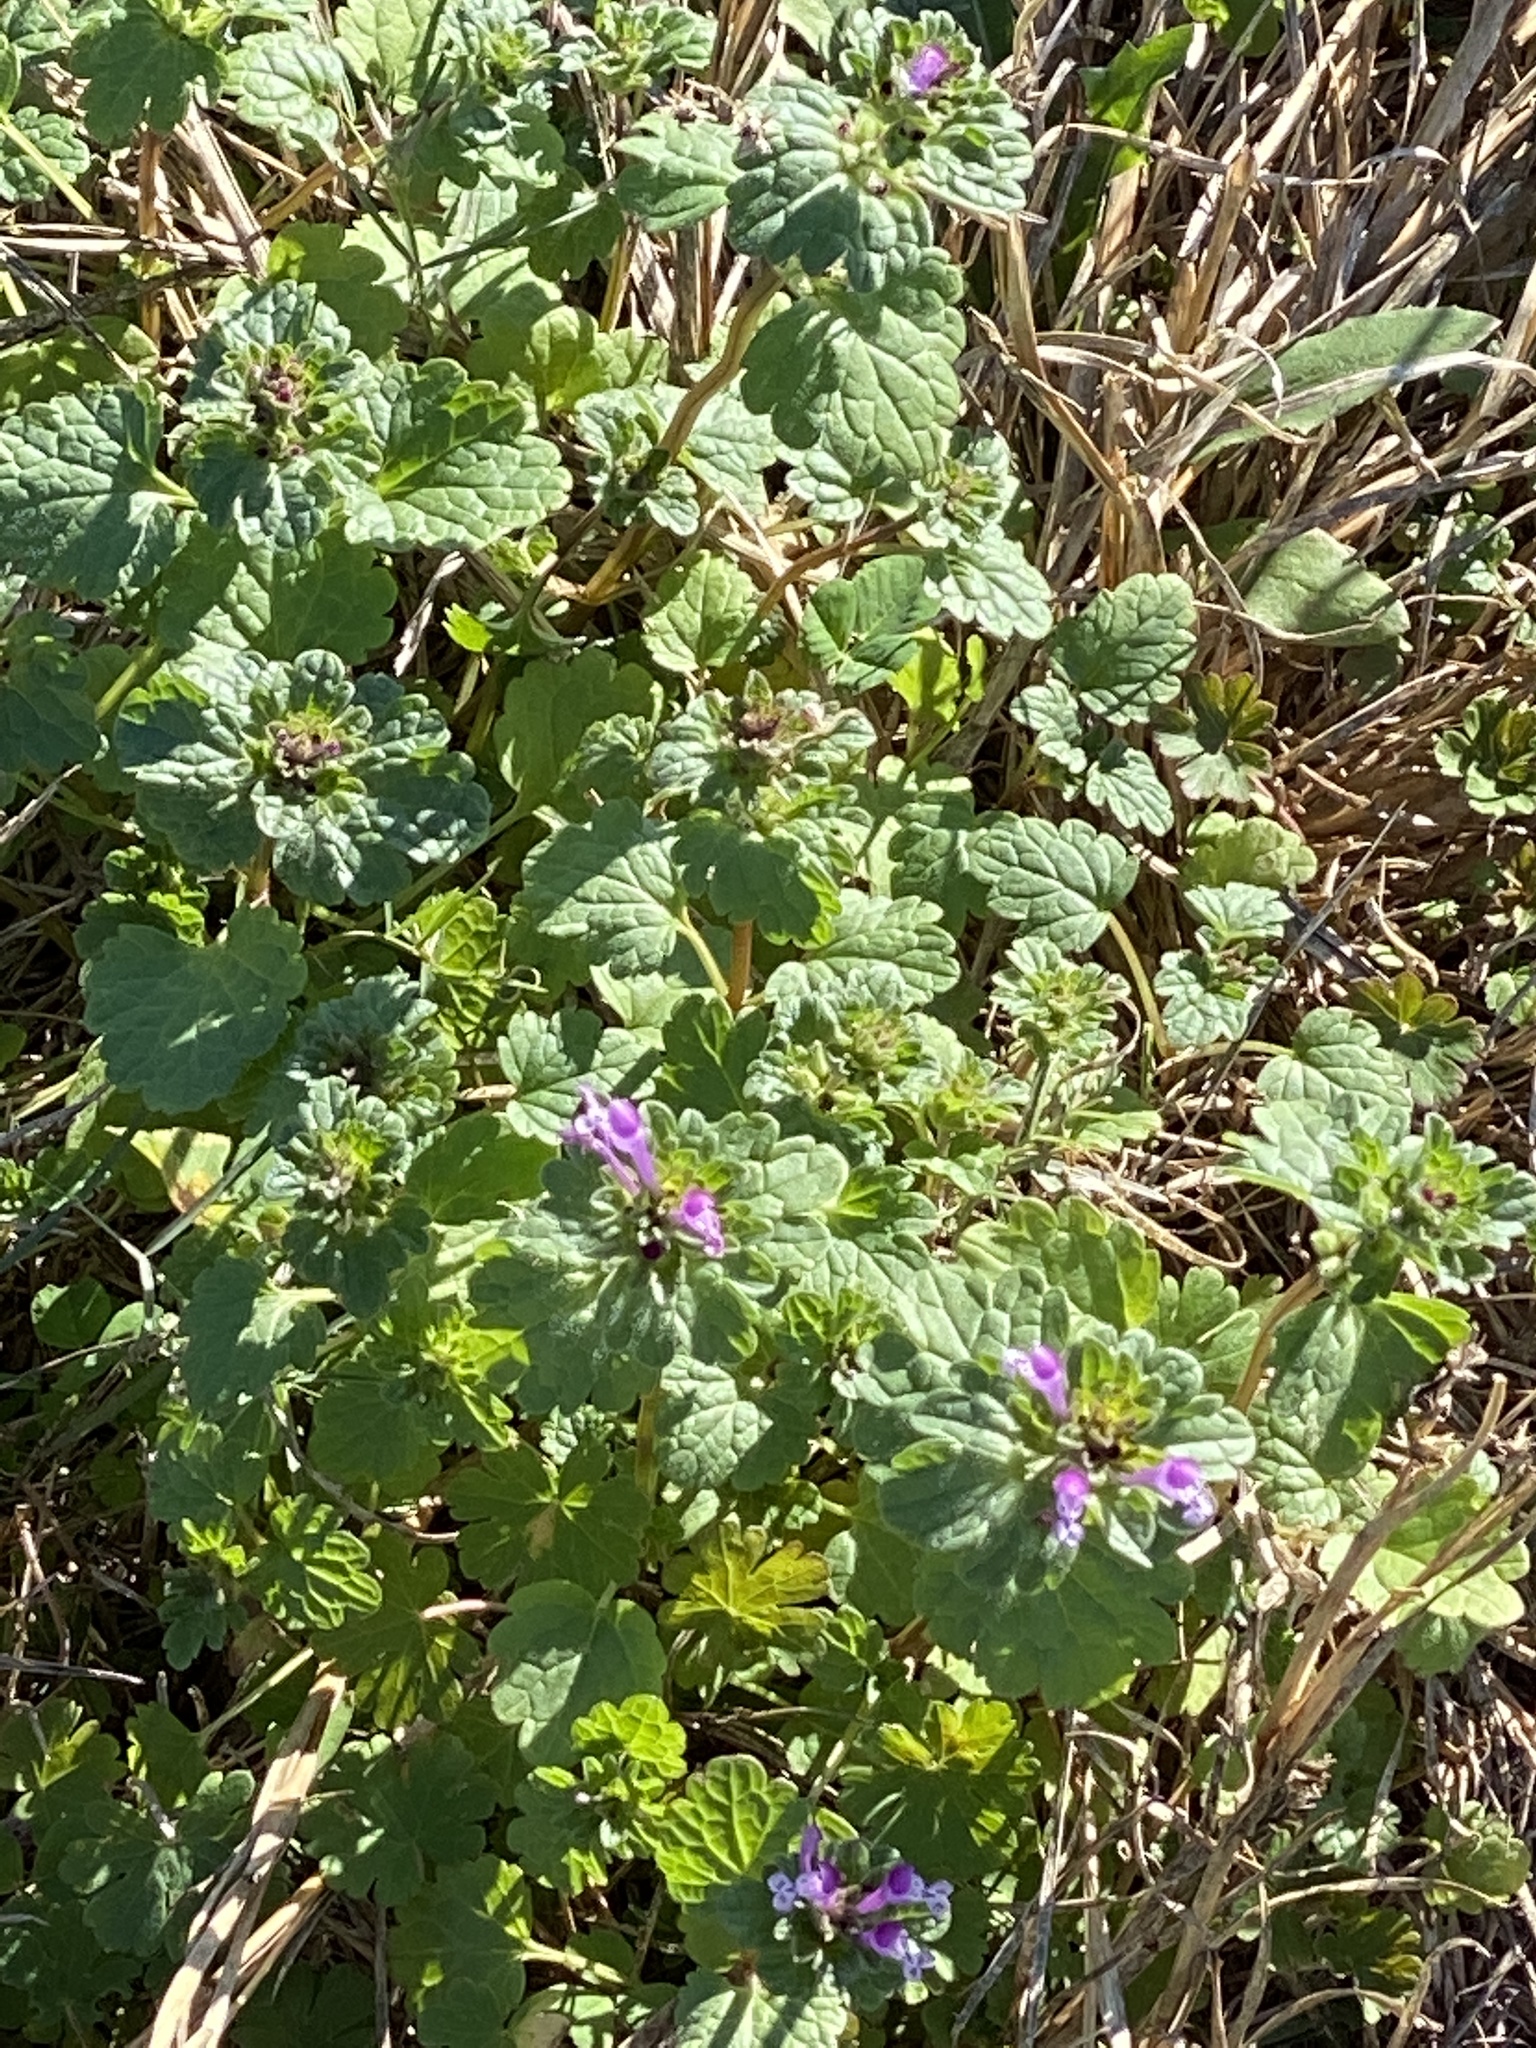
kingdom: Plantae
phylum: Tracheophyta
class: Magnoliopsida
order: Lamiales
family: Lamiaceae
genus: Lamium
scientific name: Lamium amplexicaule
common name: Henbit dead-nettle
